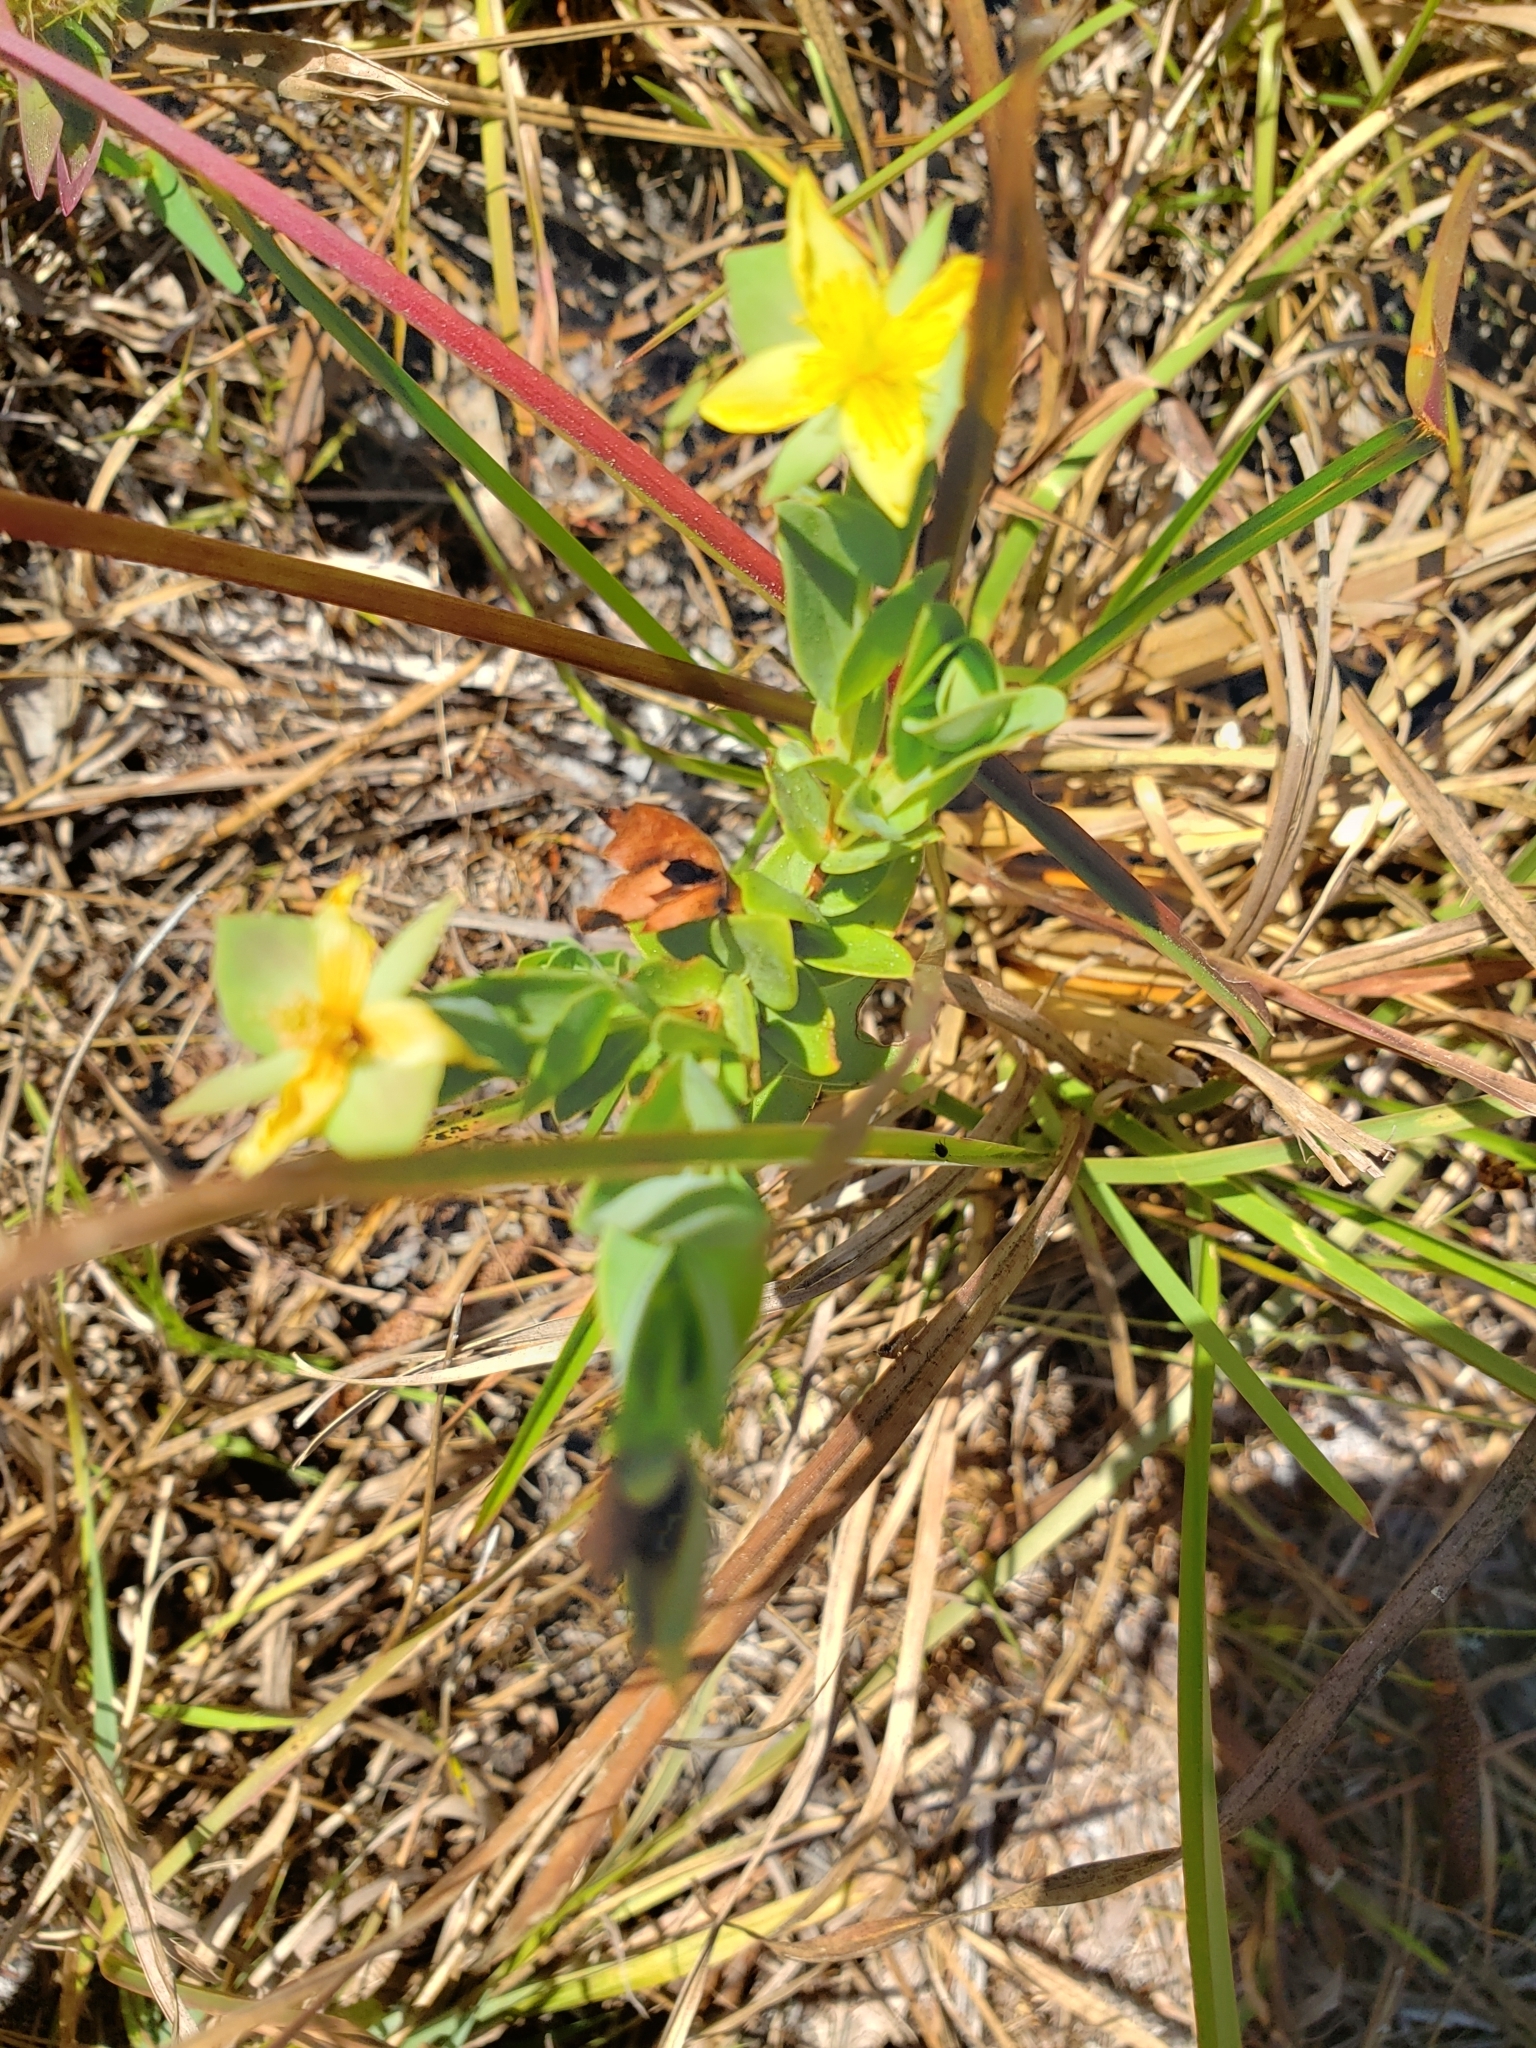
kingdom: Plantae
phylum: Tracheophyta
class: Magnoliopsida
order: Malpighiales
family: Hypericaceae
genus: Hypericum
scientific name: Hypericum tetrapetalum
